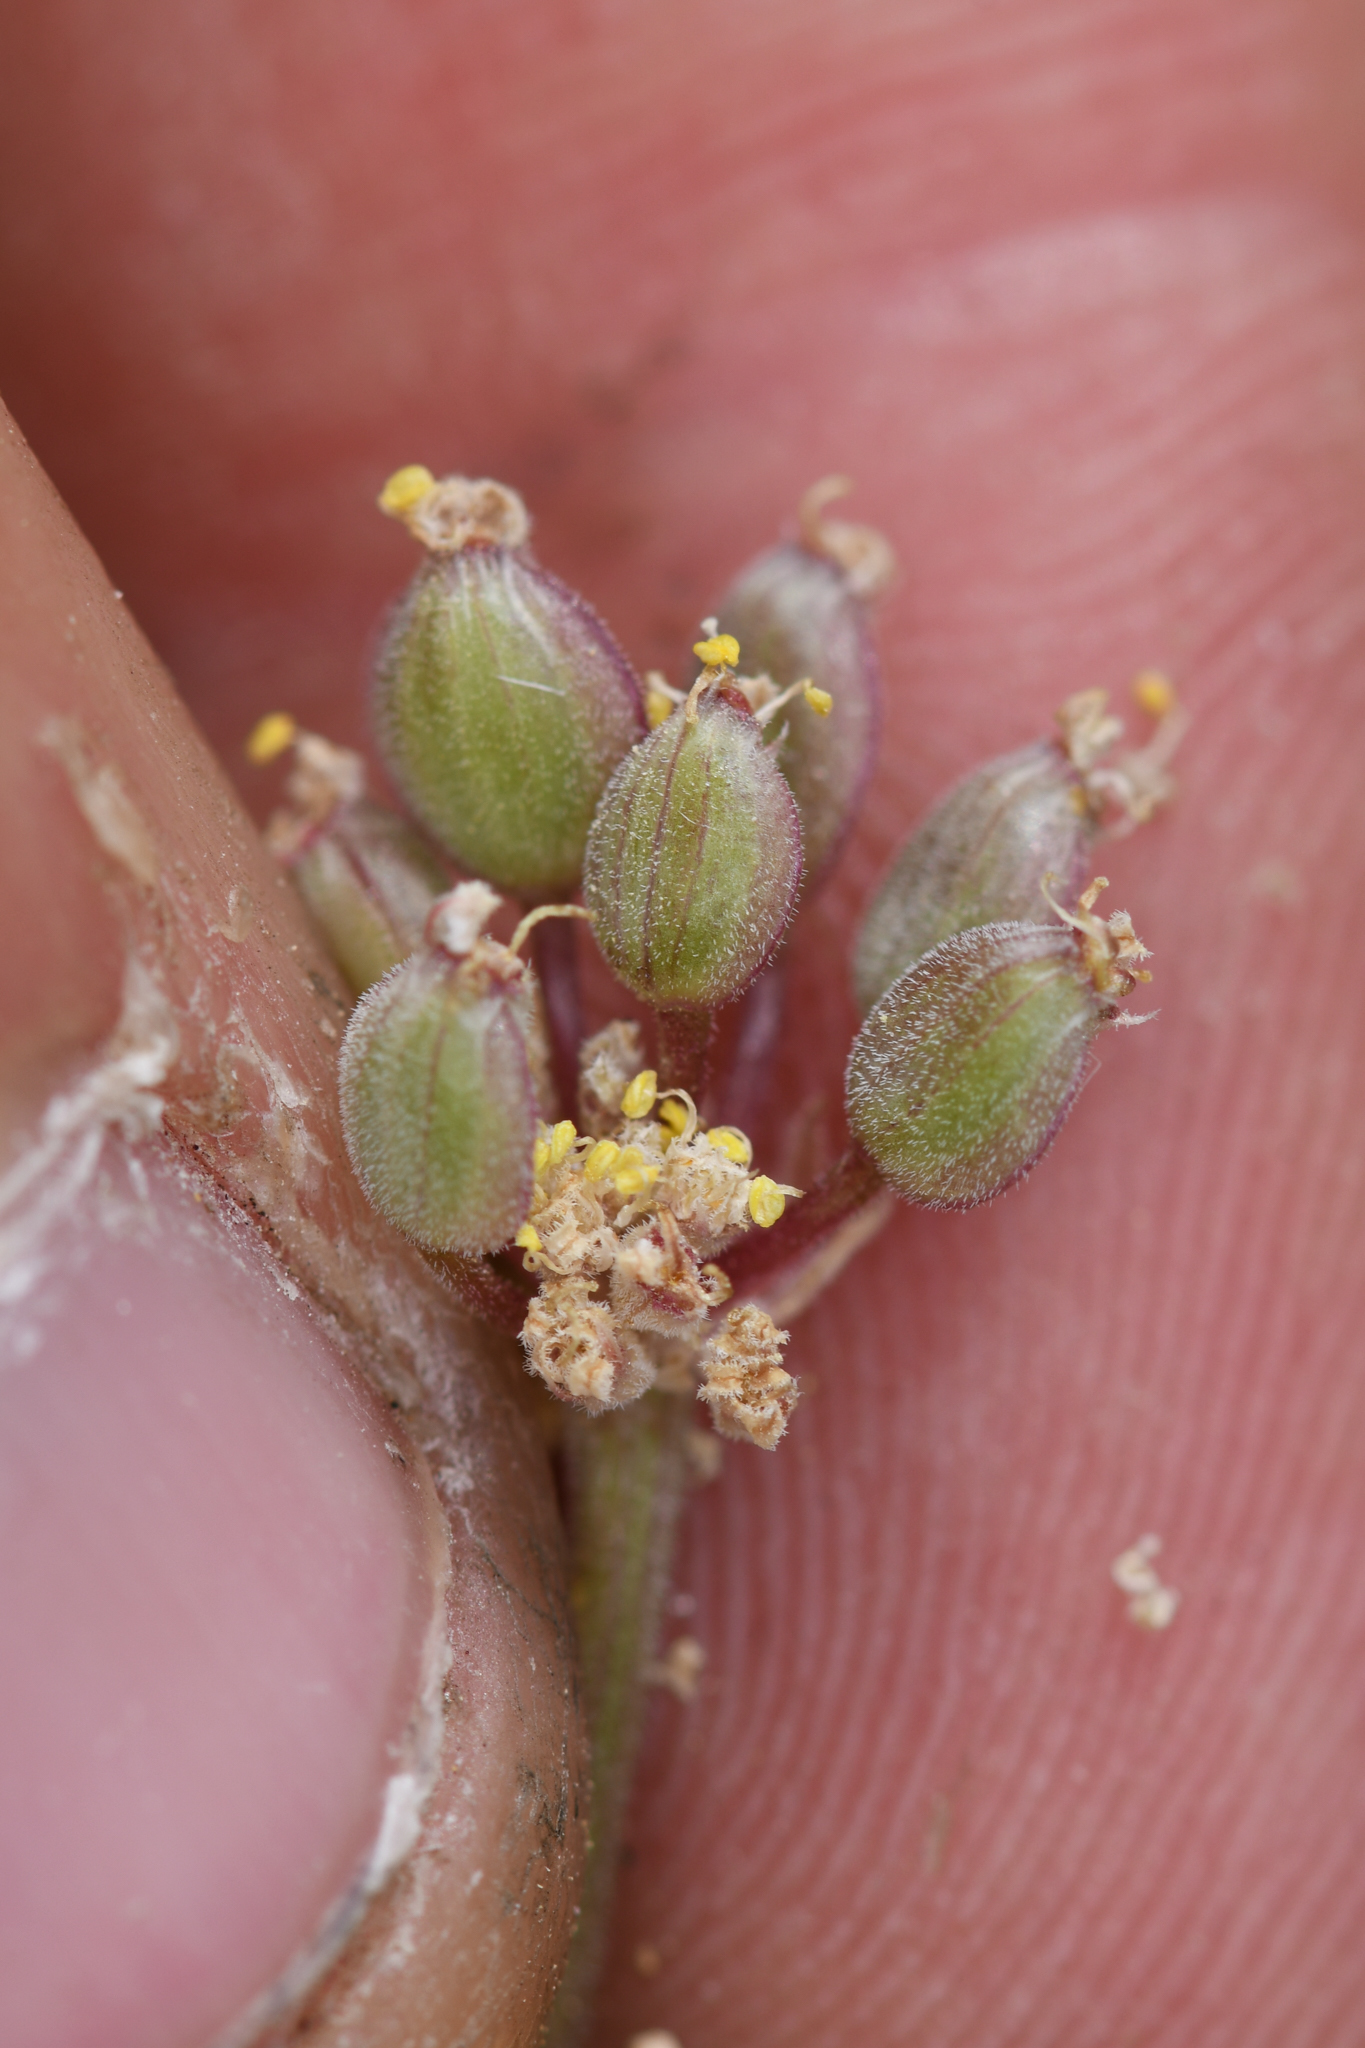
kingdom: Plantae
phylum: Tracheophyta
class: Magnoliopsida
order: Apiales
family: Apiaceae
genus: Lomatium
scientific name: Lomatium foeniculaceum
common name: Desert-parsley
